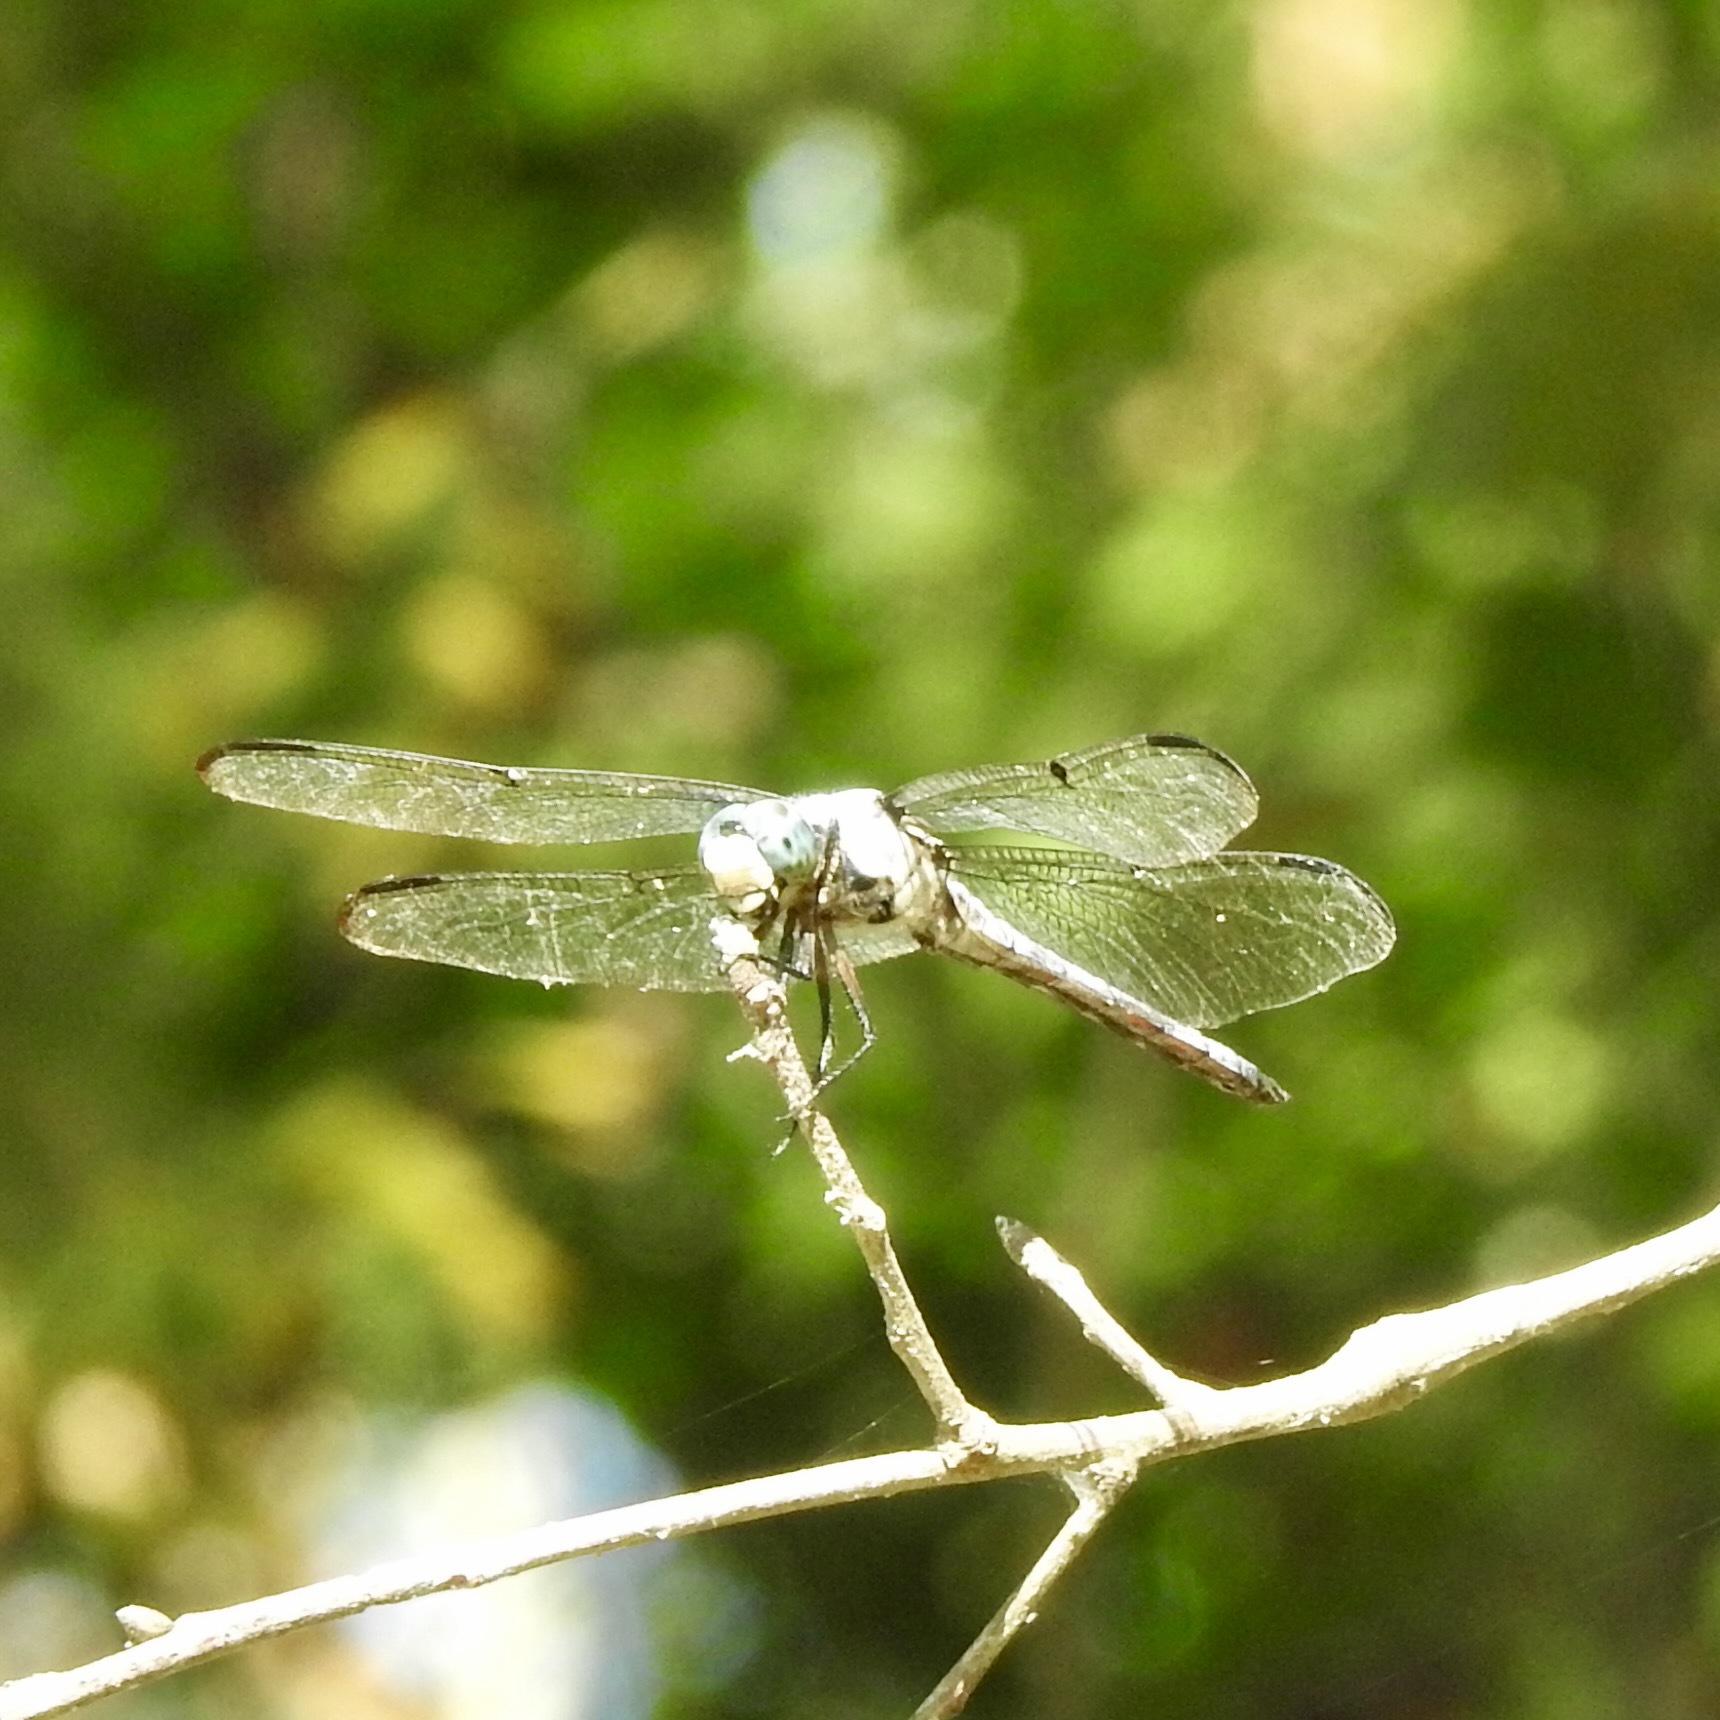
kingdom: Animalia
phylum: Arthropoda
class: Insecta
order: Odonata
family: Libellulidae
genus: Libellula
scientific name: Libellula vibrans
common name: Great blue skimmer
